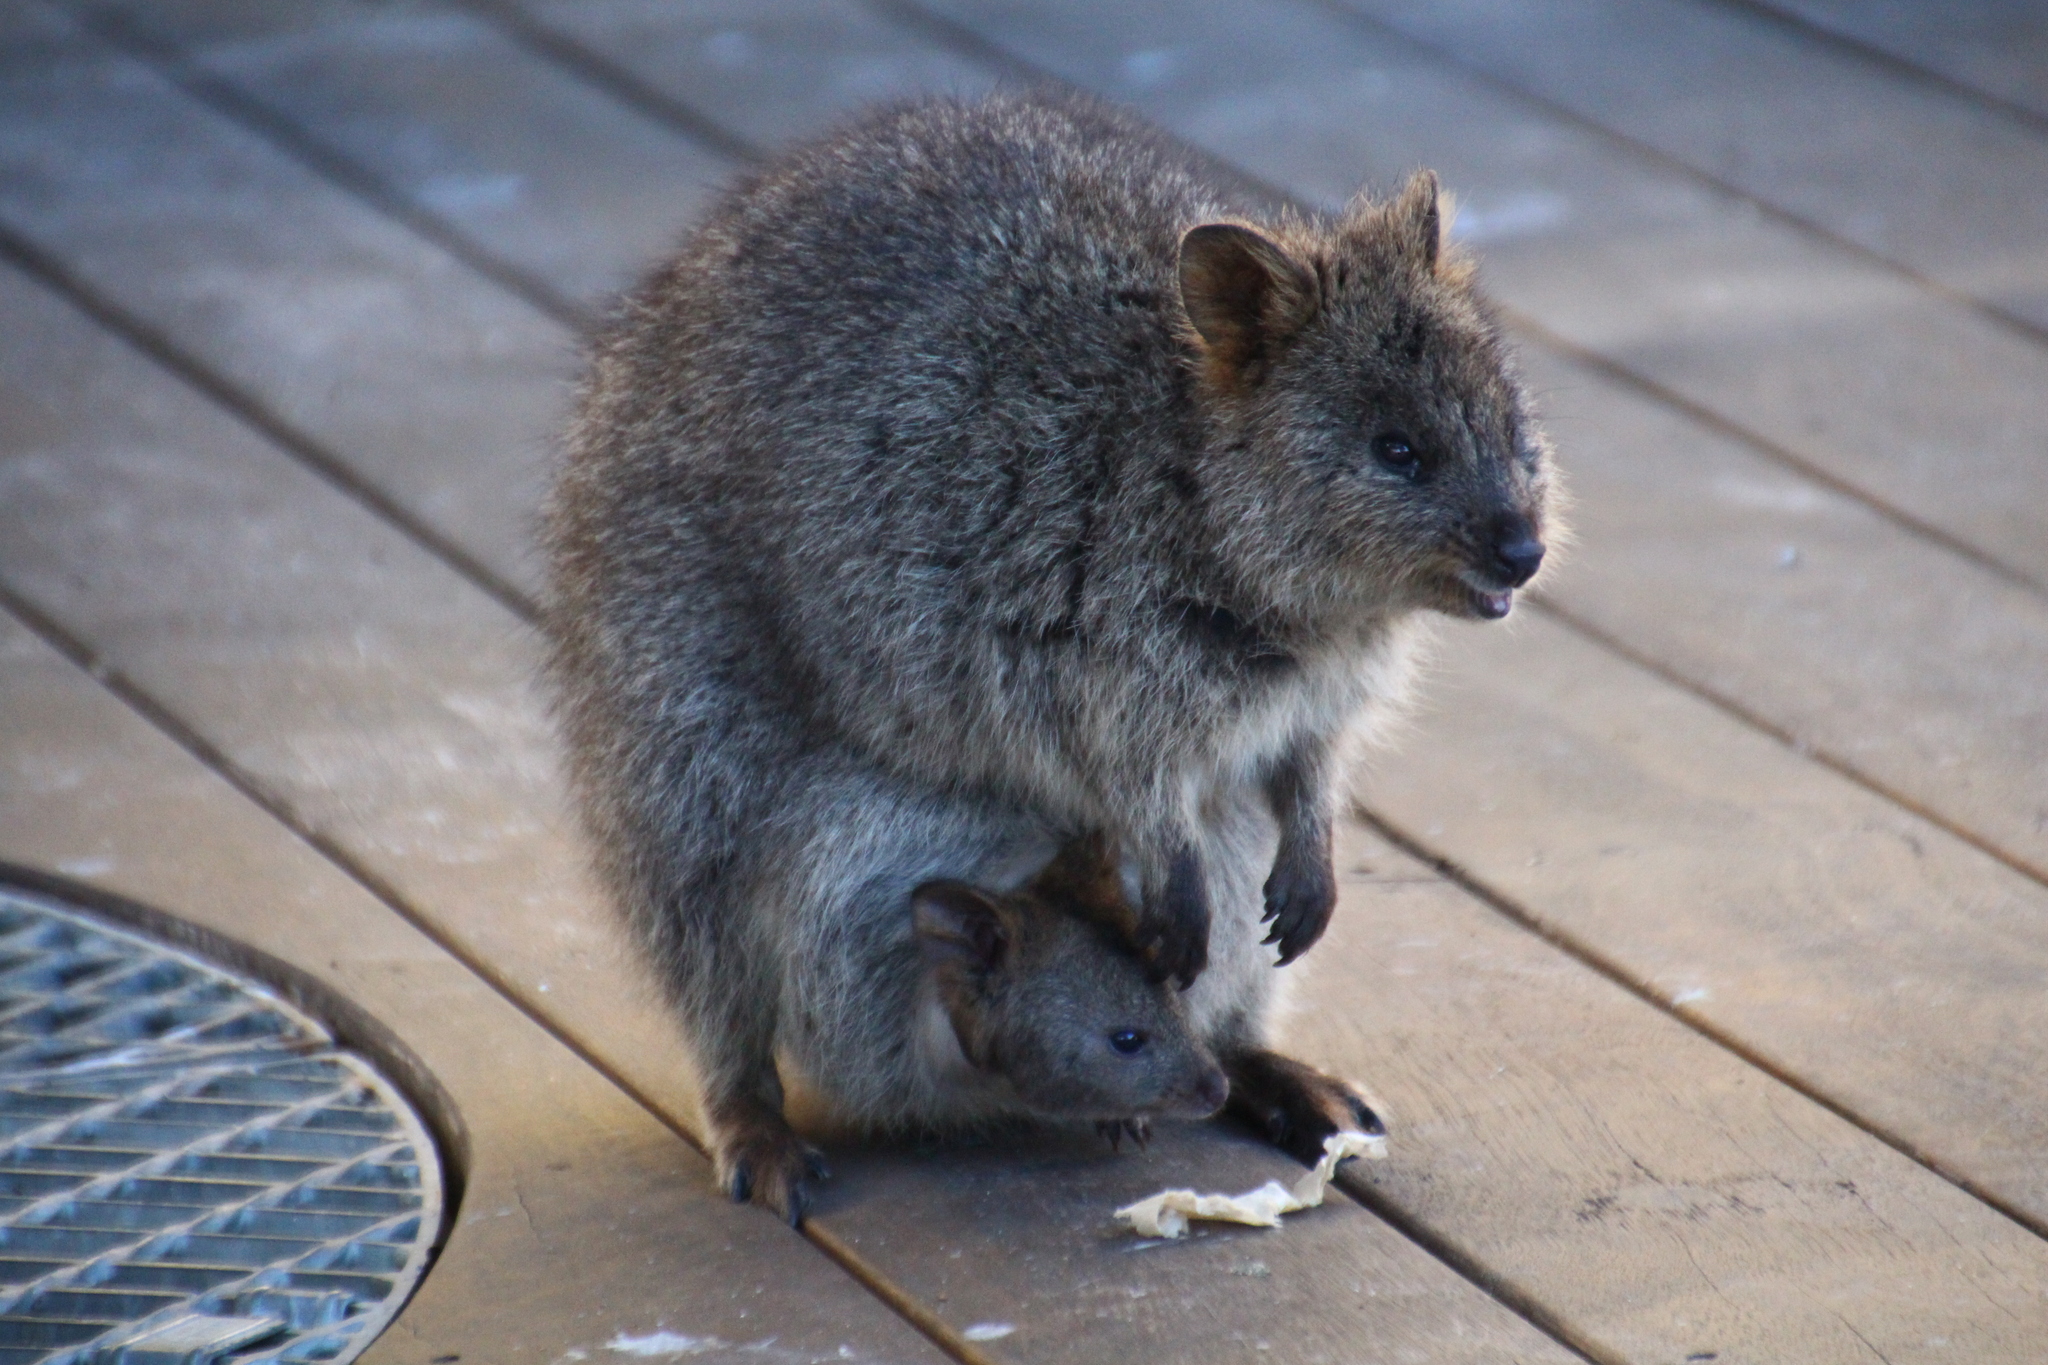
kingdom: Animalia
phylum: Chordata
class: Mammalia
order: Diprotodontia
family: Macropodidae
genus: Setonix
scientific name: Setonix brachyurus
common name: Quokka
